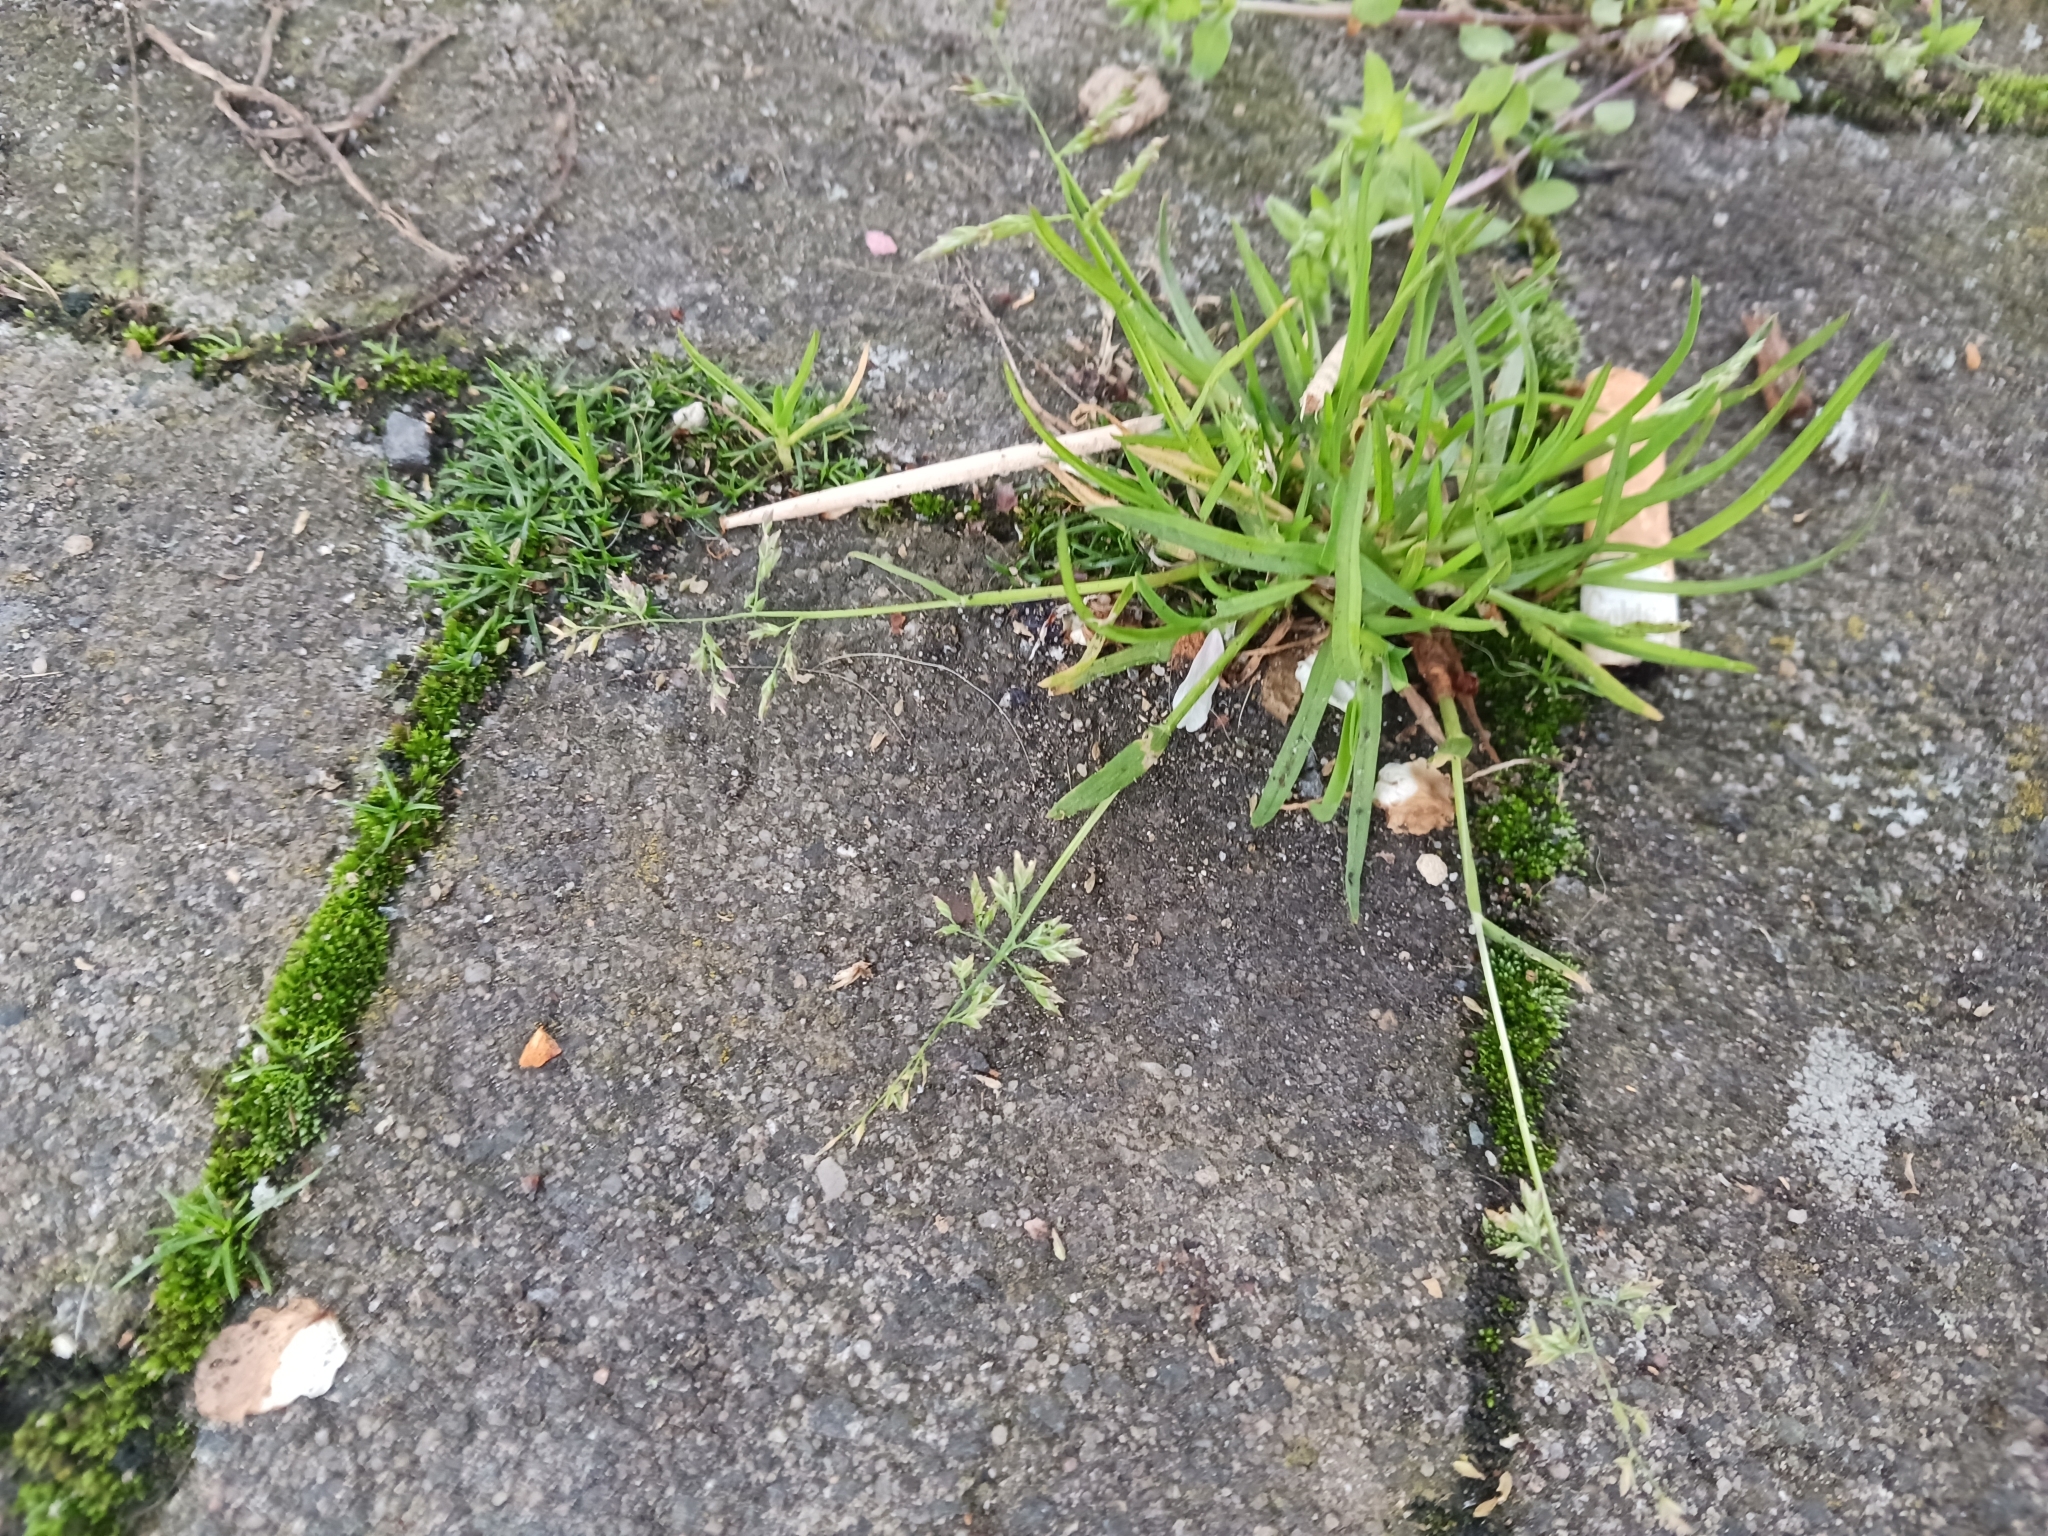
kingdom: Plantae
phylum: Tracheophyta
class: Liliopsida
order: Poales
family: Poaceae
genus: Poa
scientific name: Poa annua
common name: Annual bluegrass
